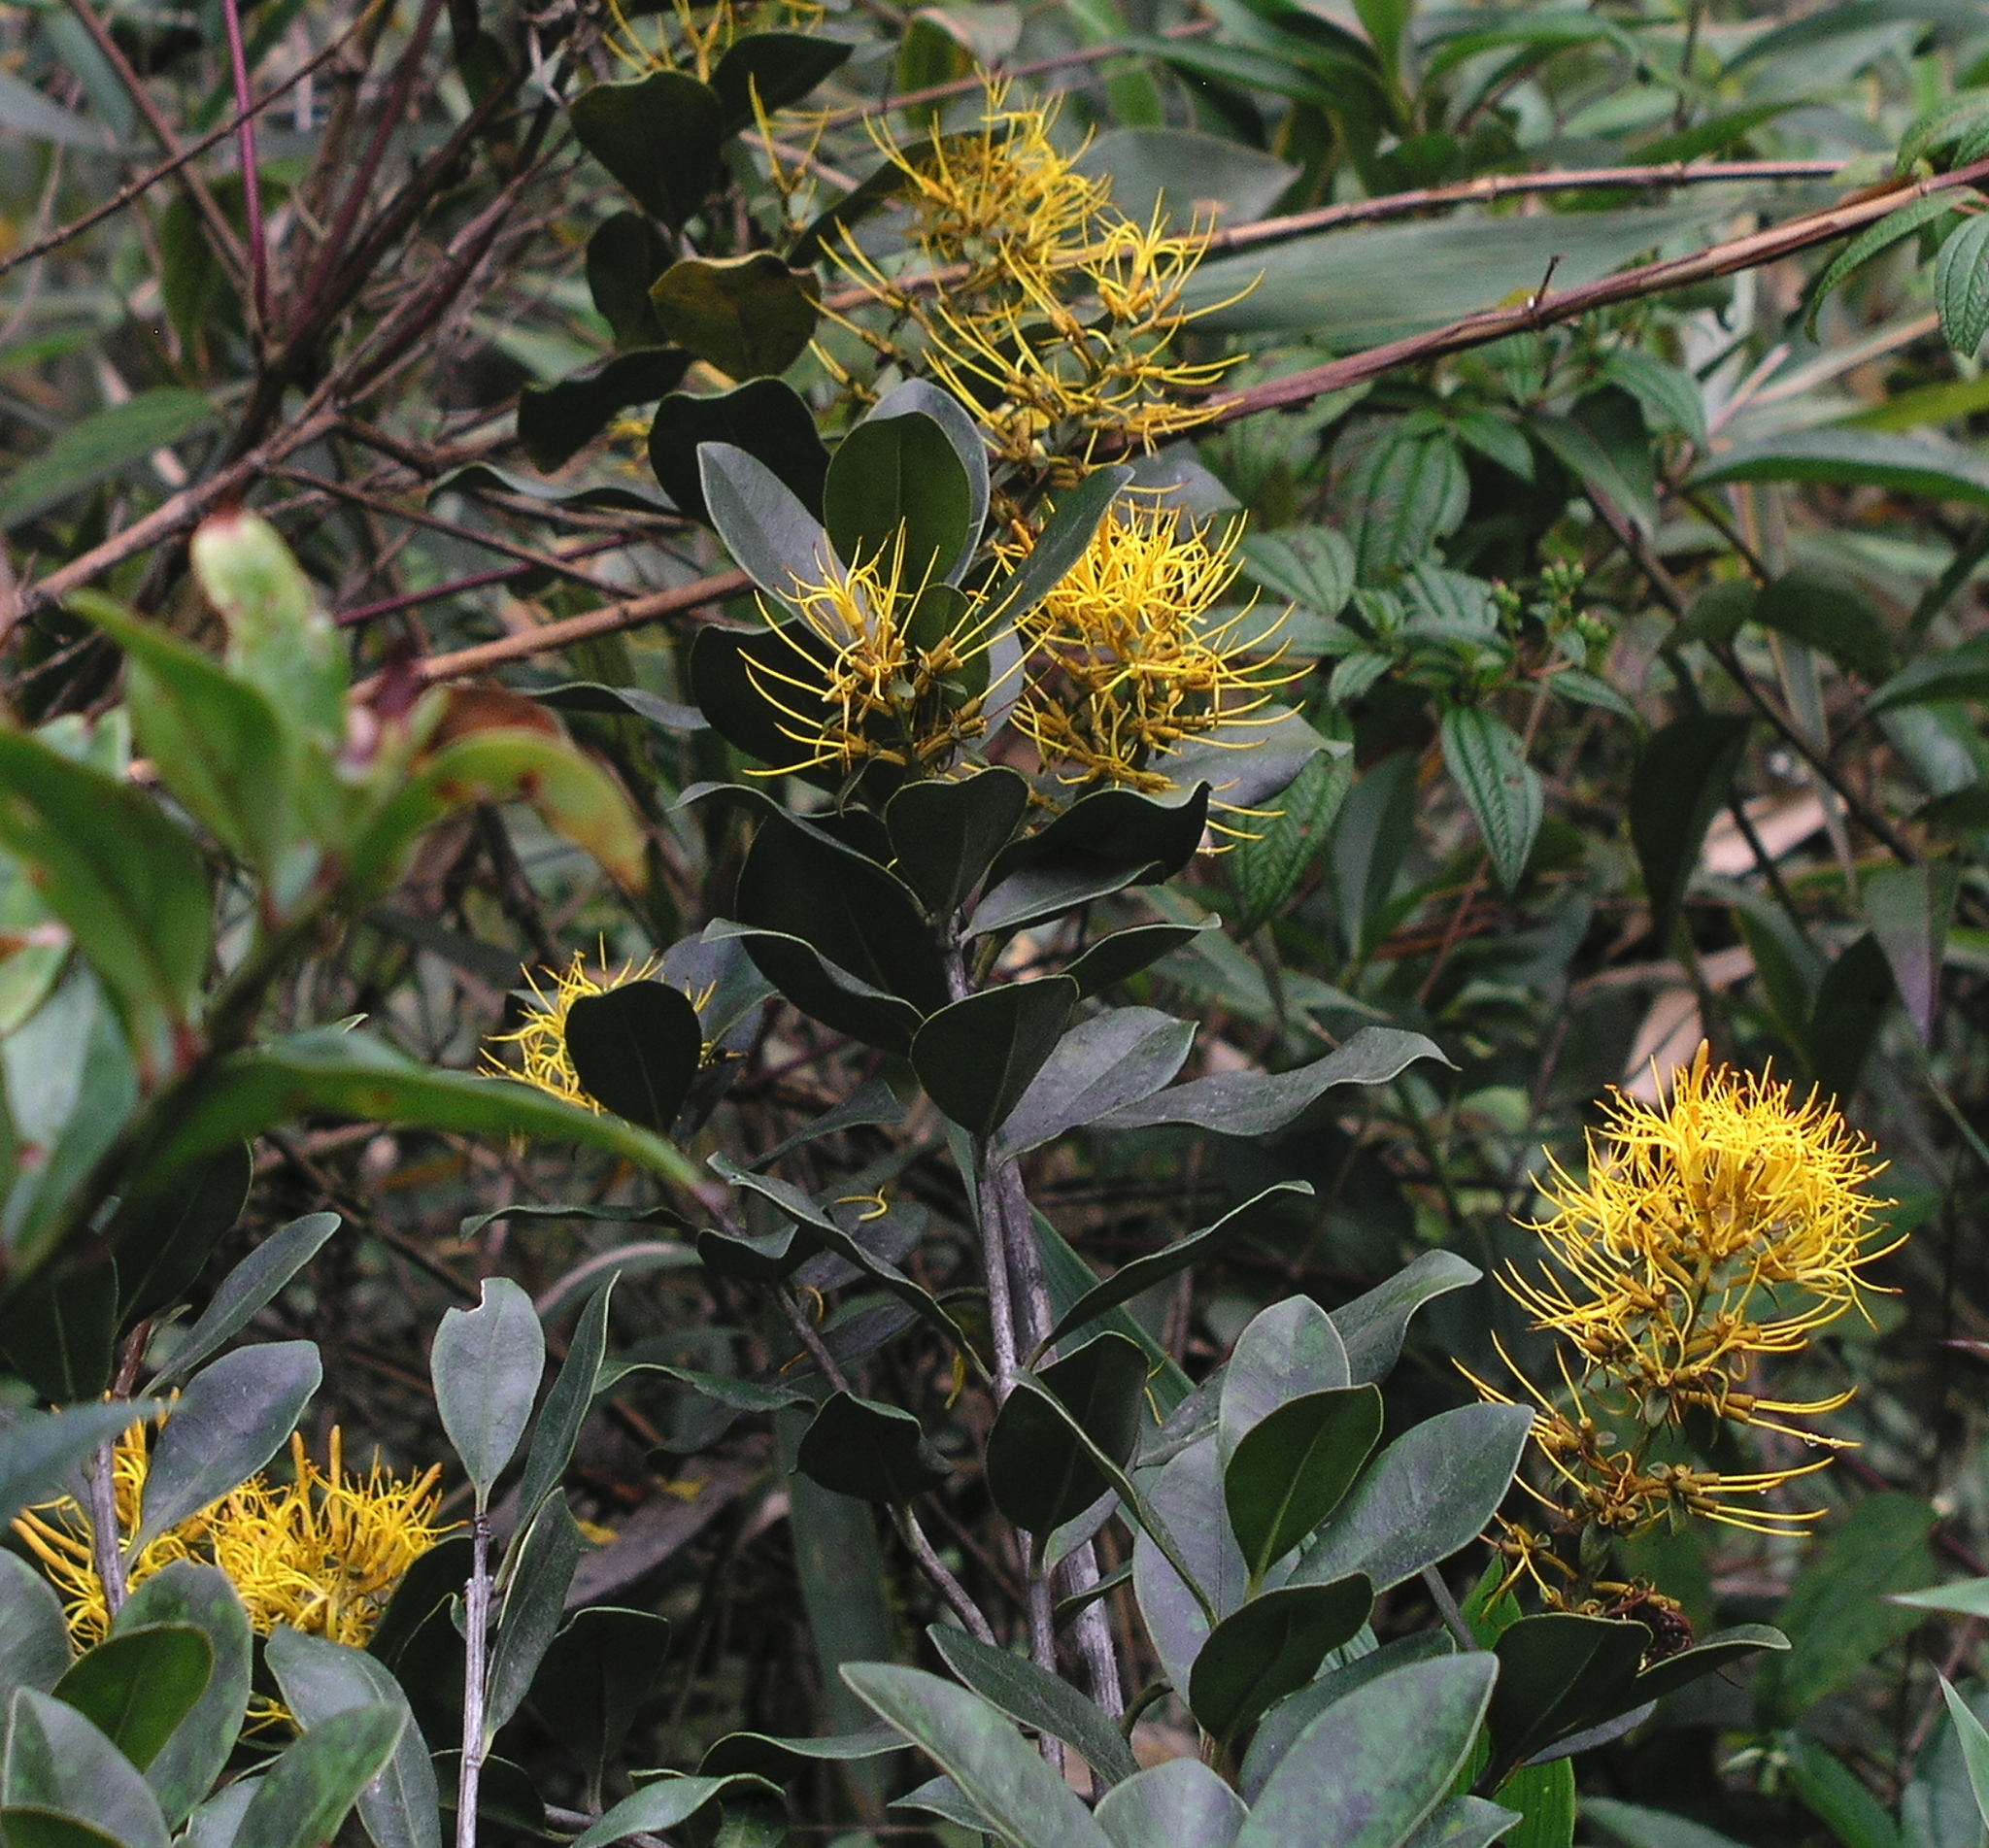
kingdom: Plantae
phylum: Tracheophyta
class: Magnoliopsida
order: Santalales
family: Loranthaceae
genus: Gaiadendron
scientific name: Gaiadendron punctatum
